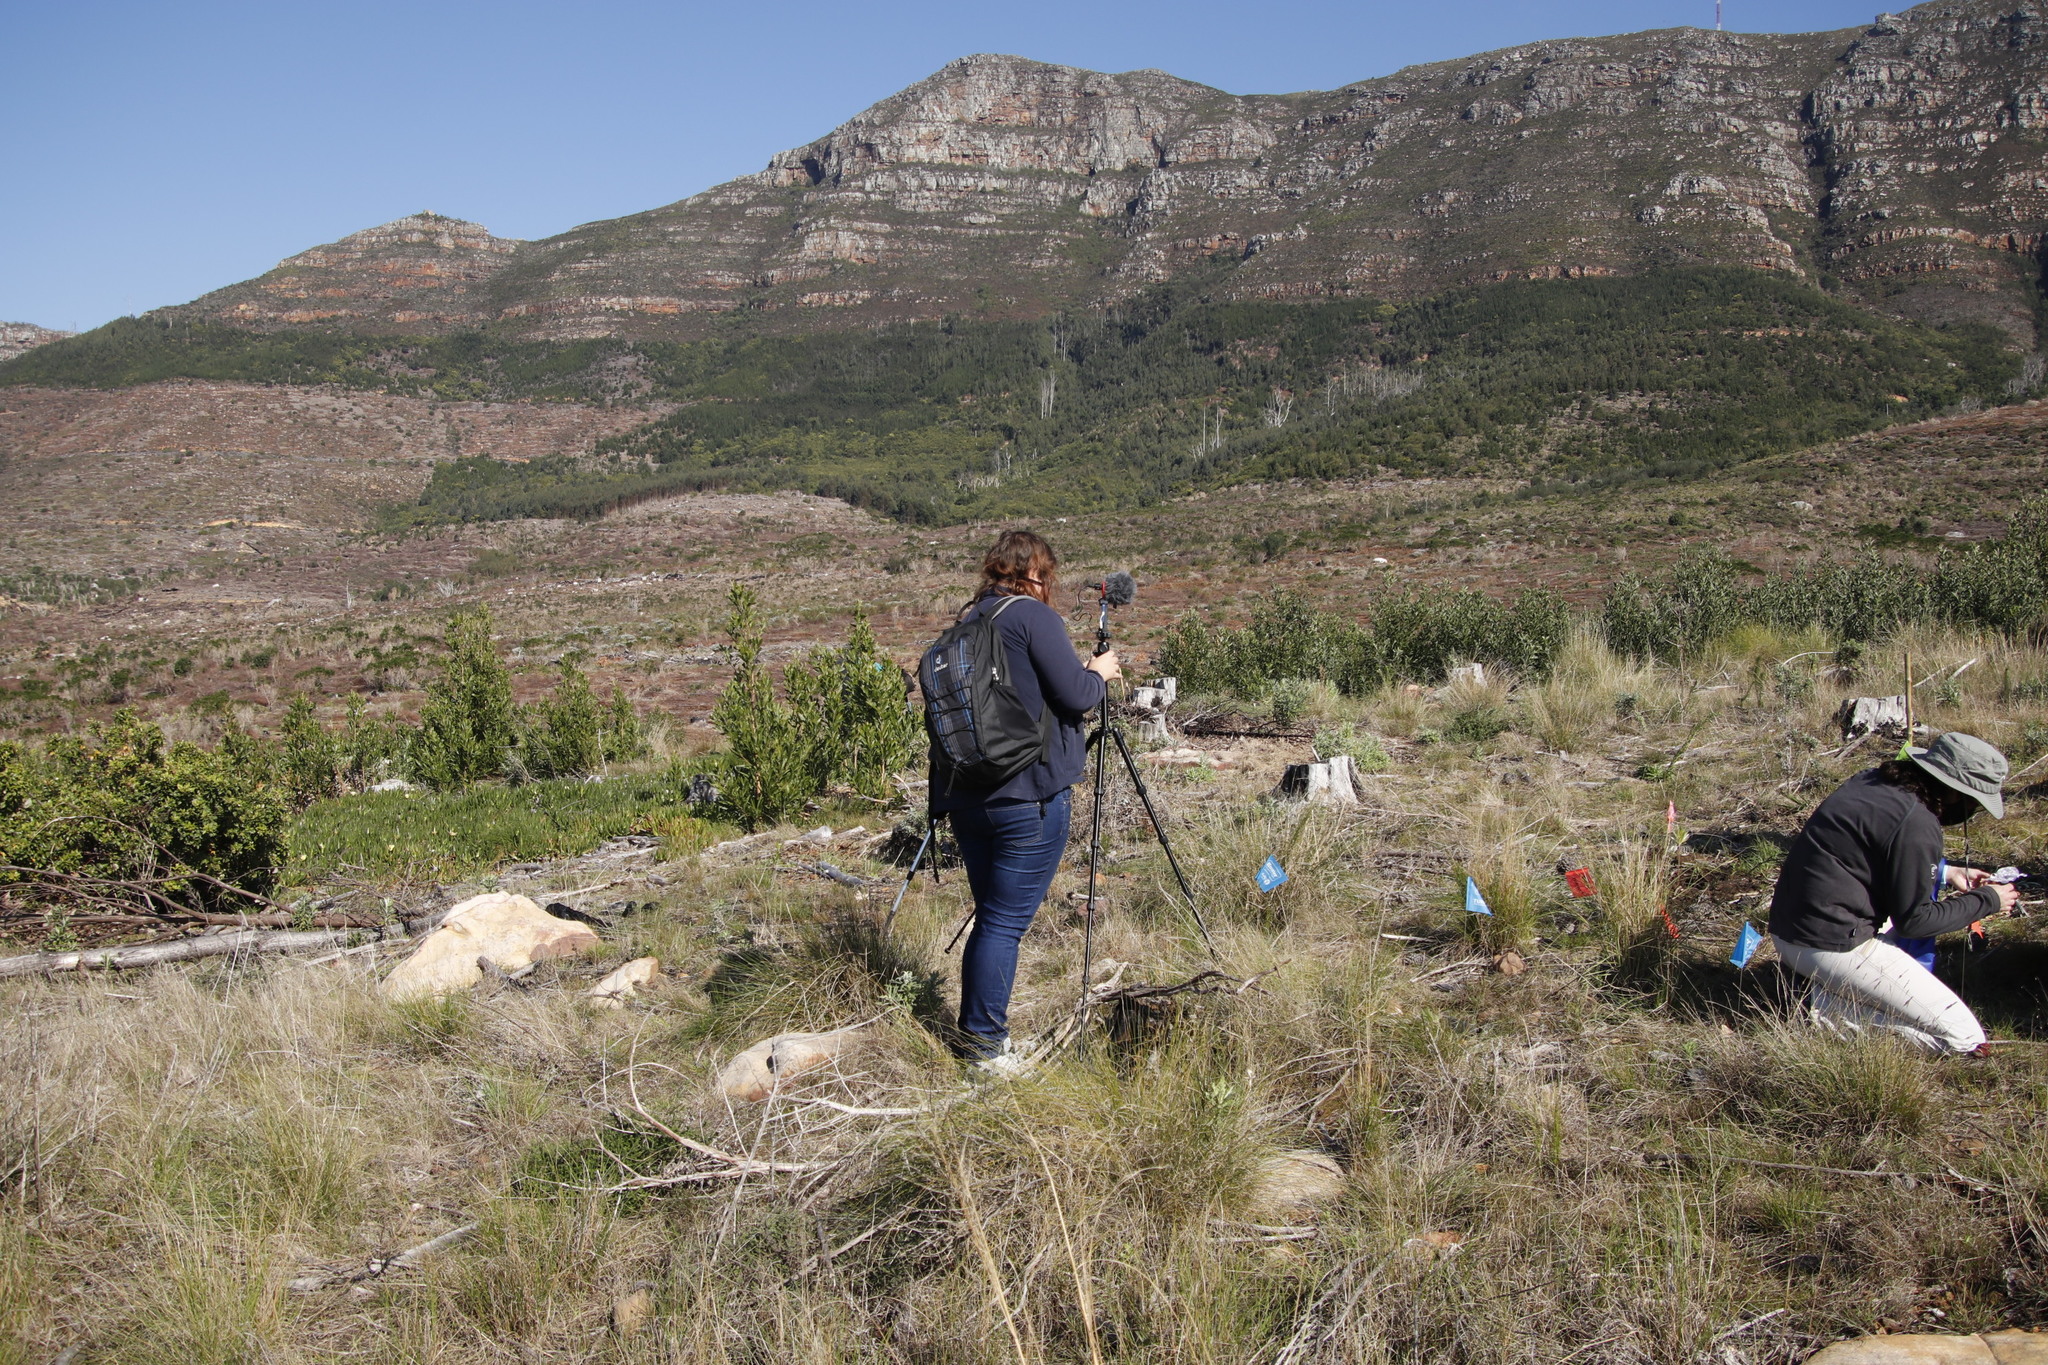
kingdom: Plantae
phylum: Tracheophyta
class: Magnoliopsida
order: Fabales
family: Fabaceae
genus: Acacia
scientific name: Acacia melanoxylon
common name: Blackwood
